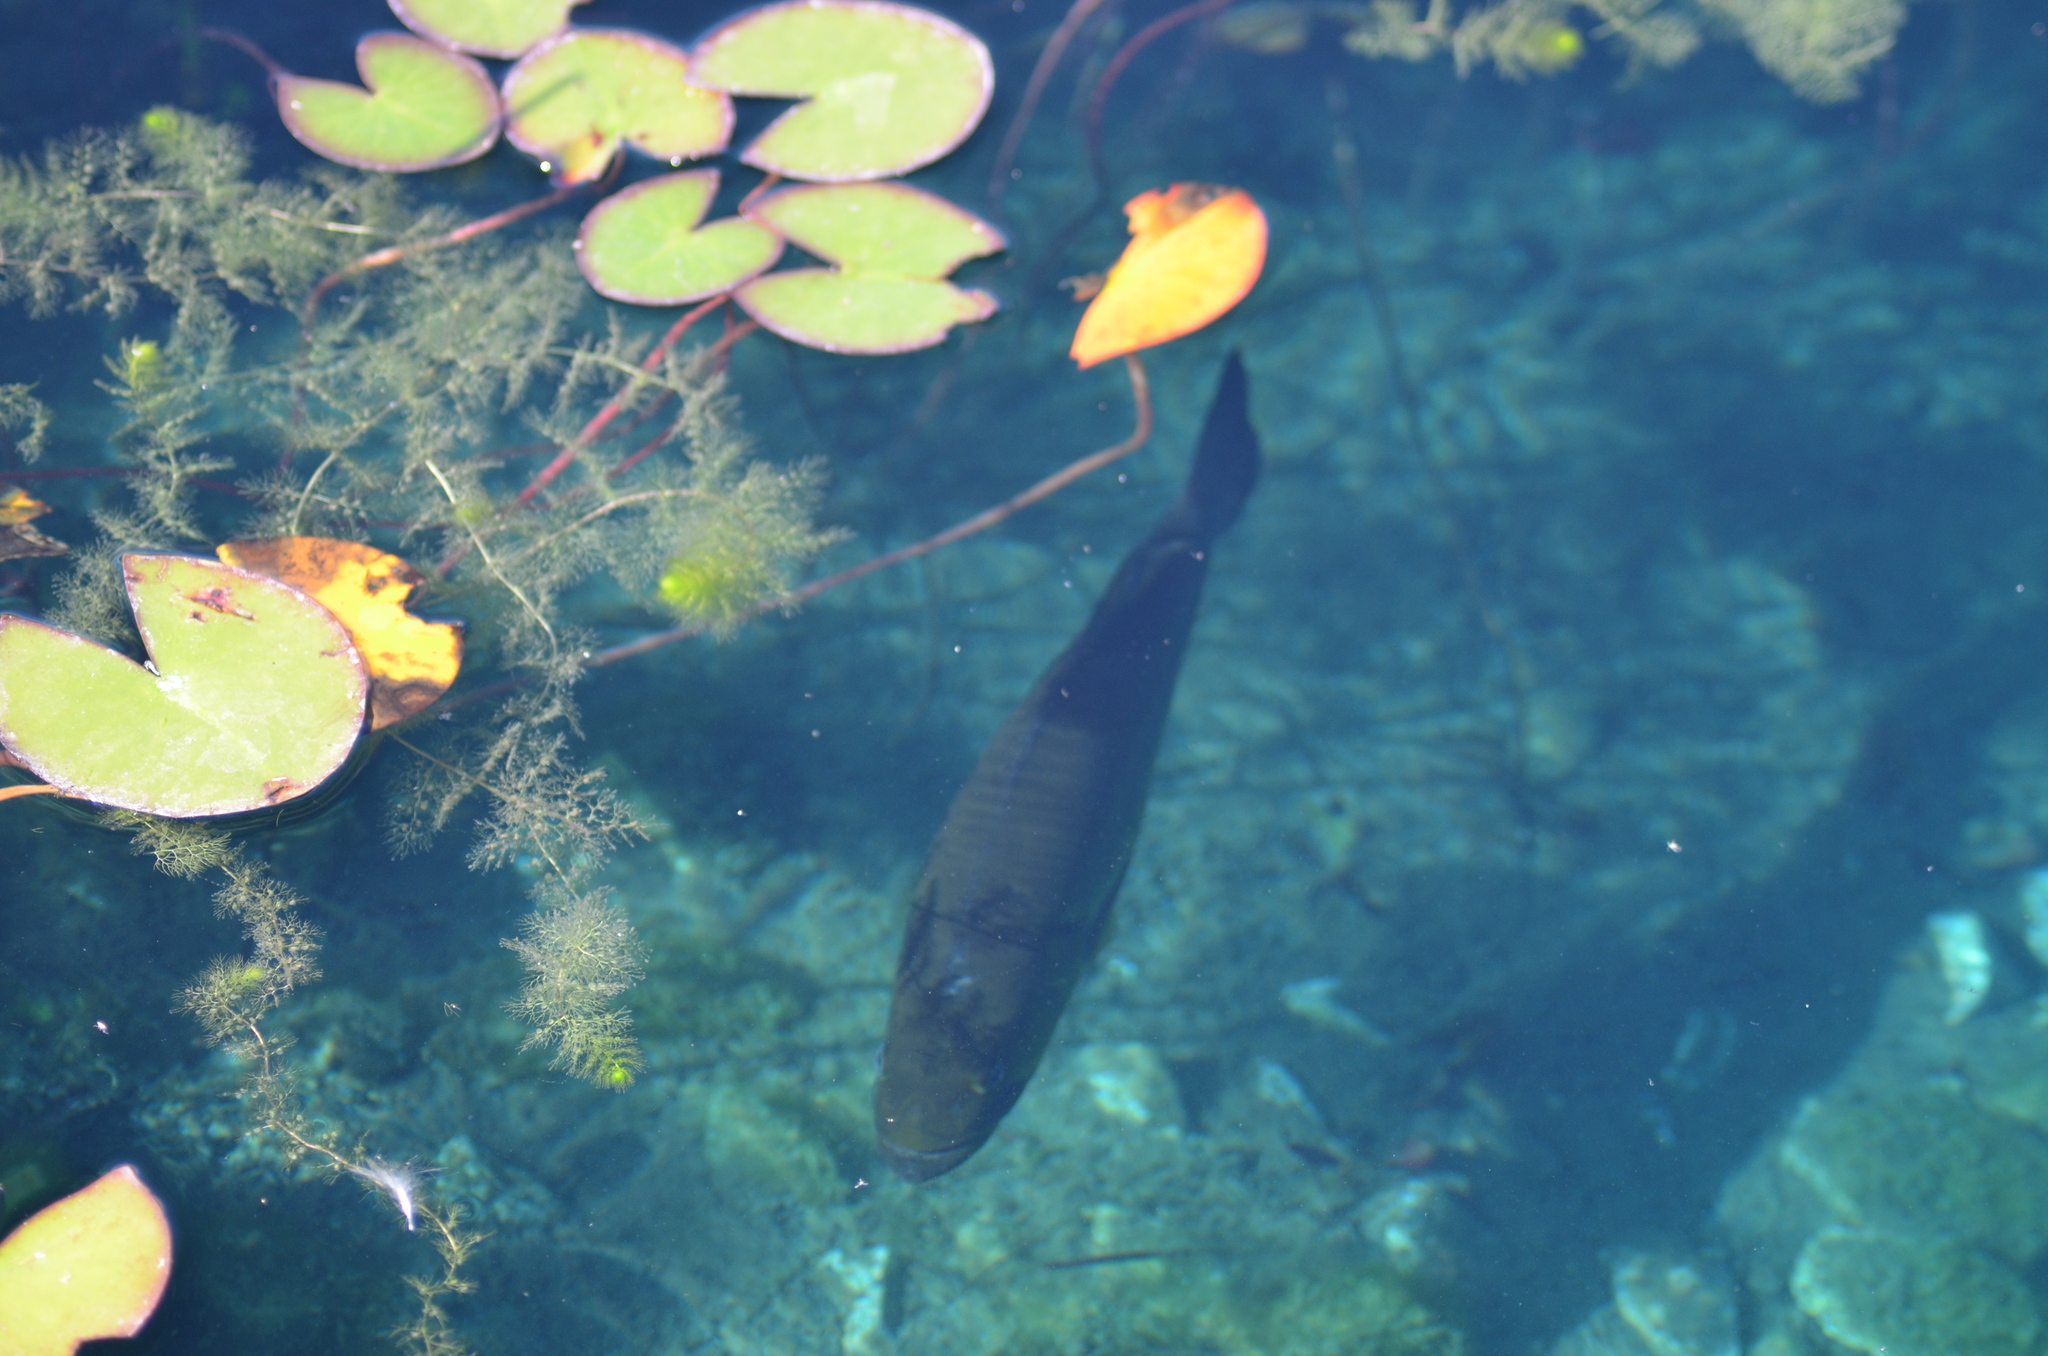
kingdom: Animalia
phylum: Chordata
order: Perciformes
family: Centrarchidae
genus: Micropterus
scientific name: Micropterus
